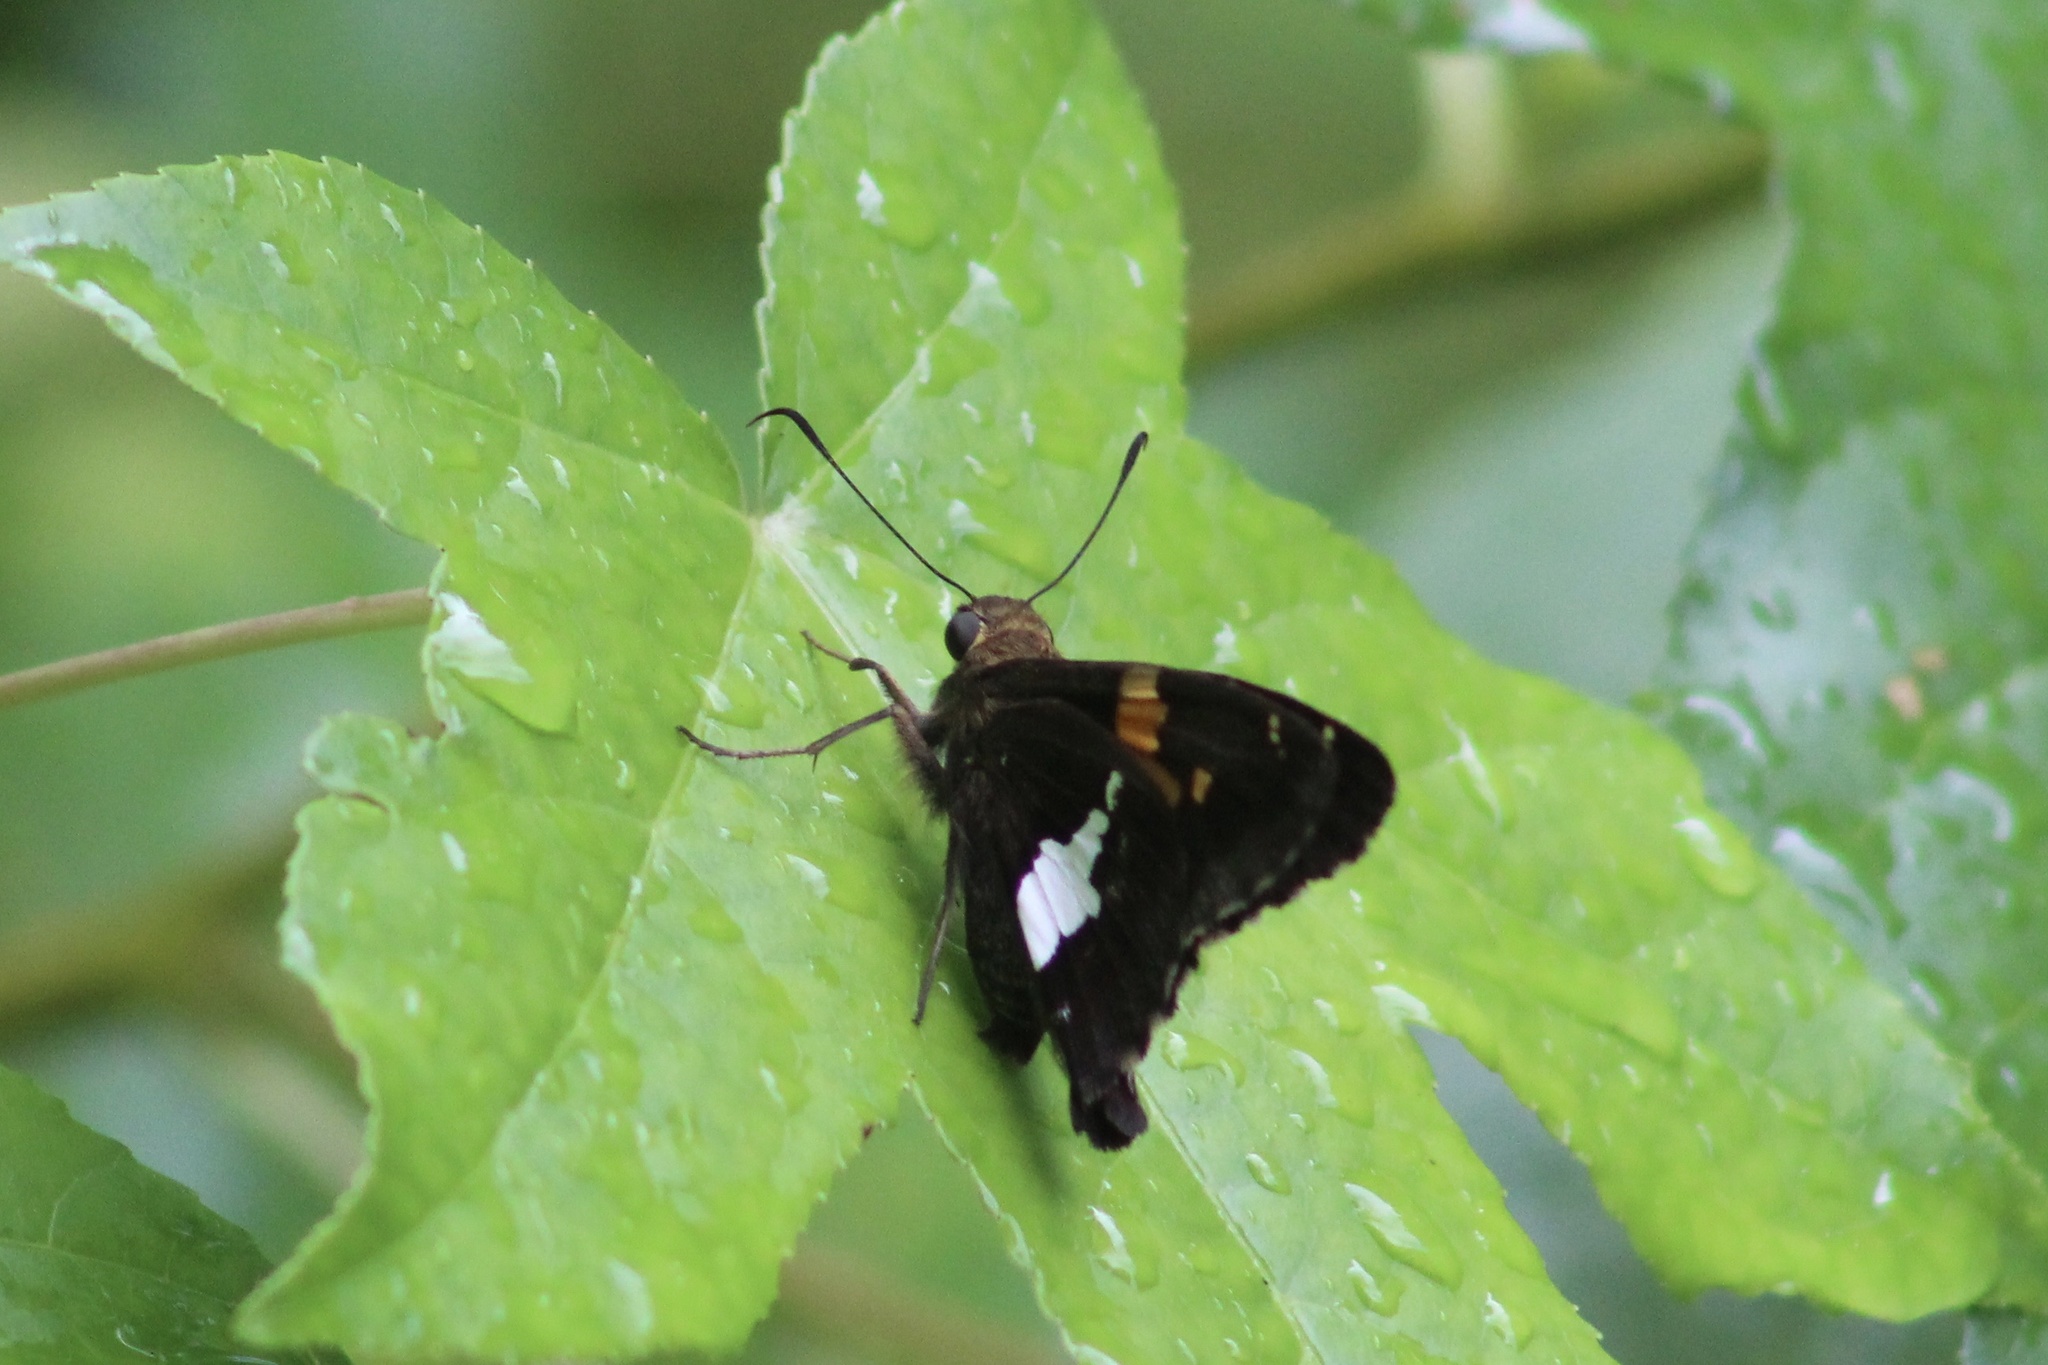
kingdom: Animalia
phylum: Arthropoda
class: Insecta
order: Lepidoptera
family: Hesperiidae
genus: Epargyreus
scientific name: Epargyreus clarus
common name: Silver-spotted skipper
